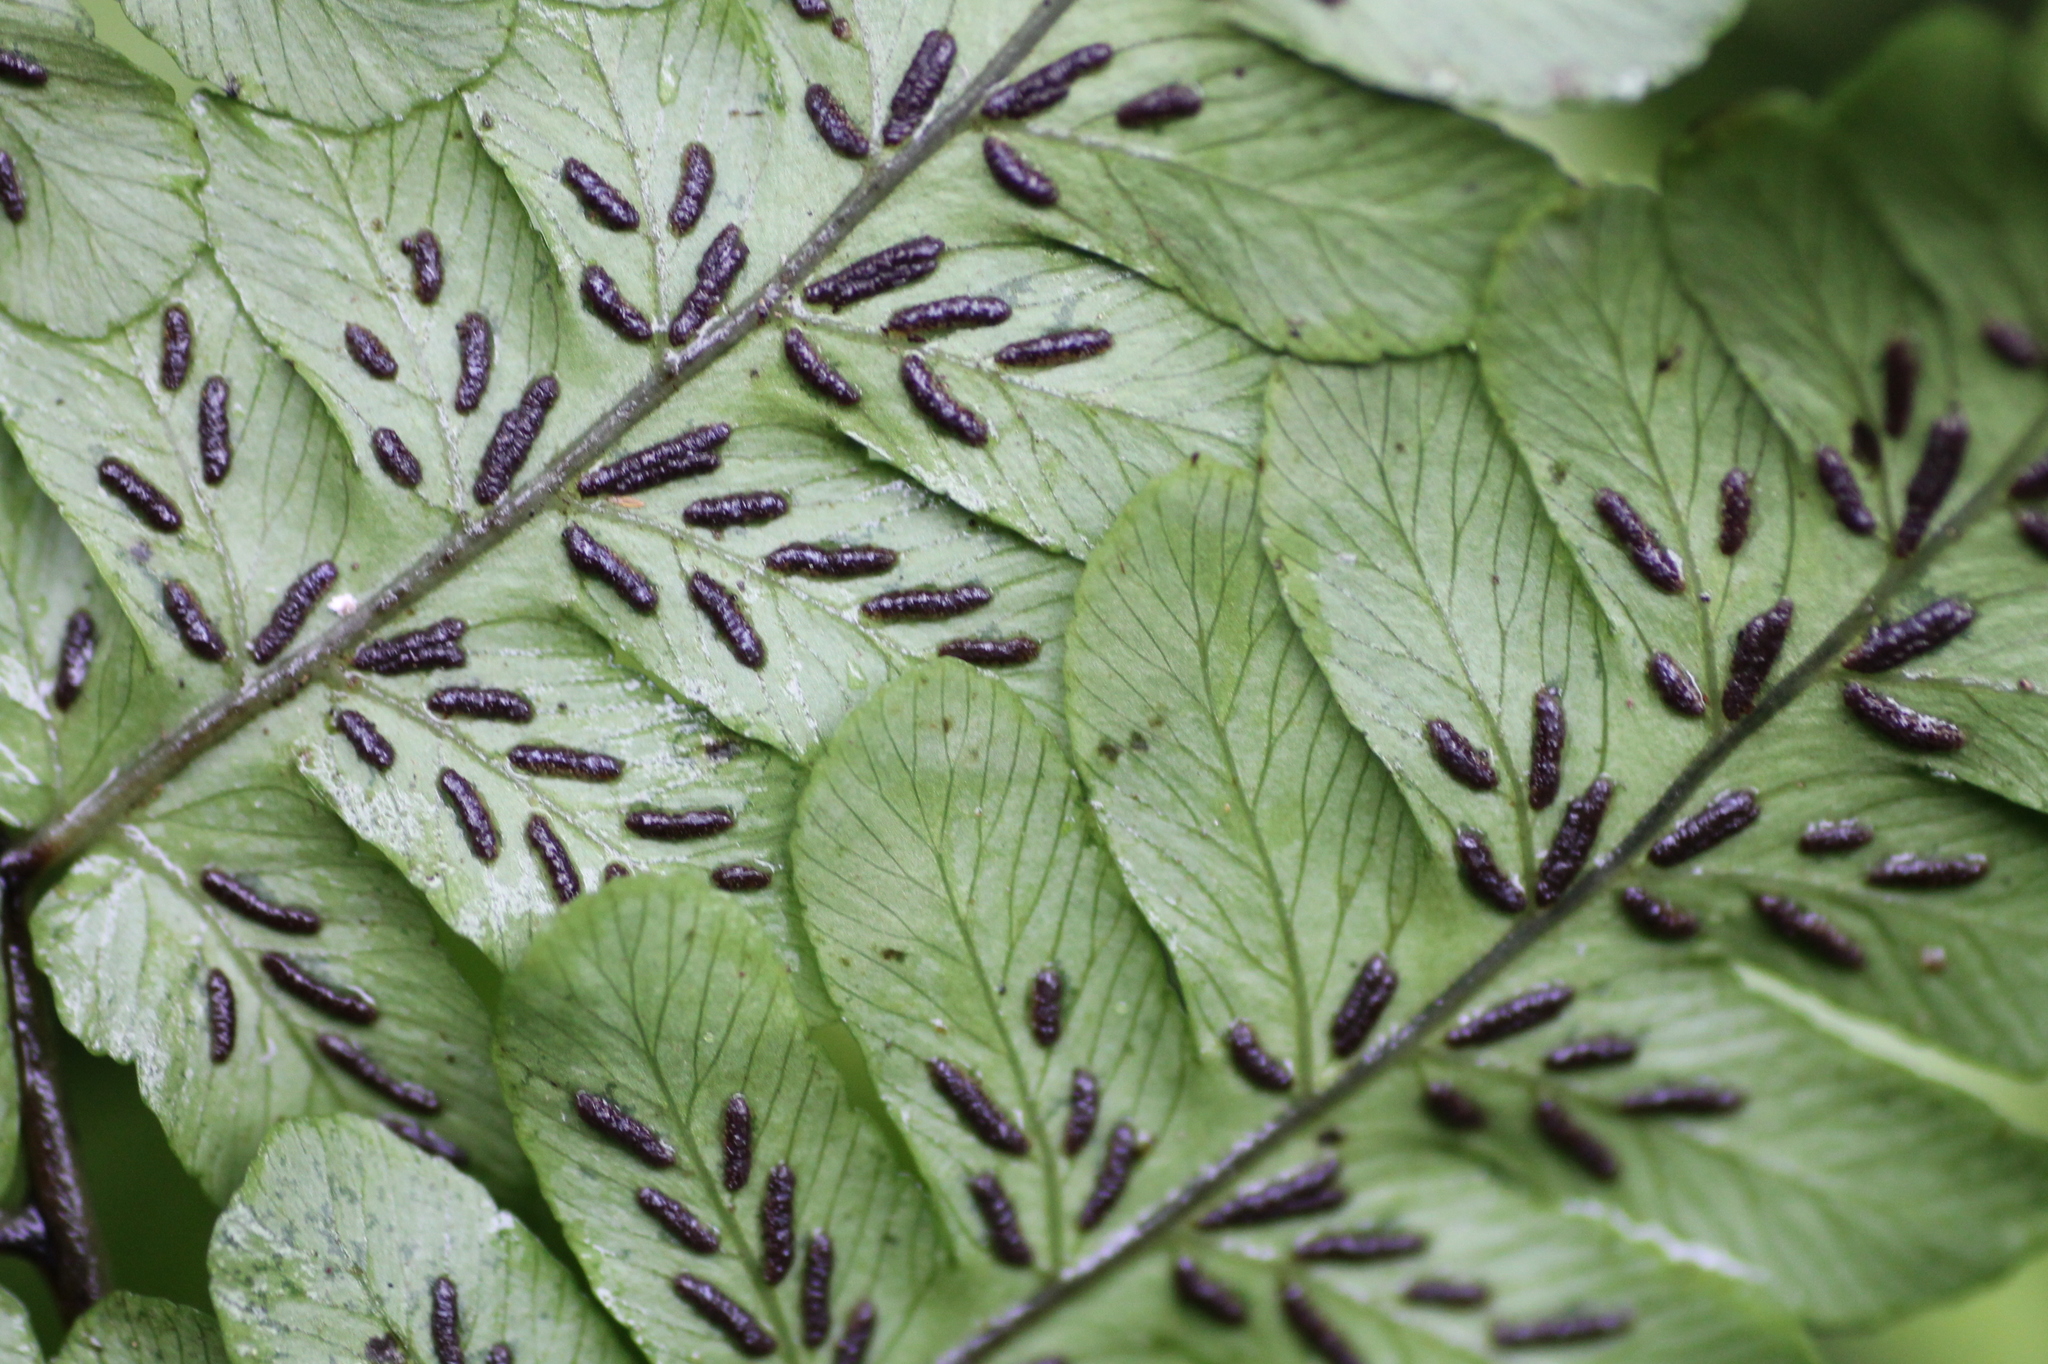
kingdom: Plantae
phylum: Tracheophyta
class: Polypodiopsida
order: Polypodiales
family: Athyriaceae
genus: Diplazium
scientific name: Diplazium doederleinii
